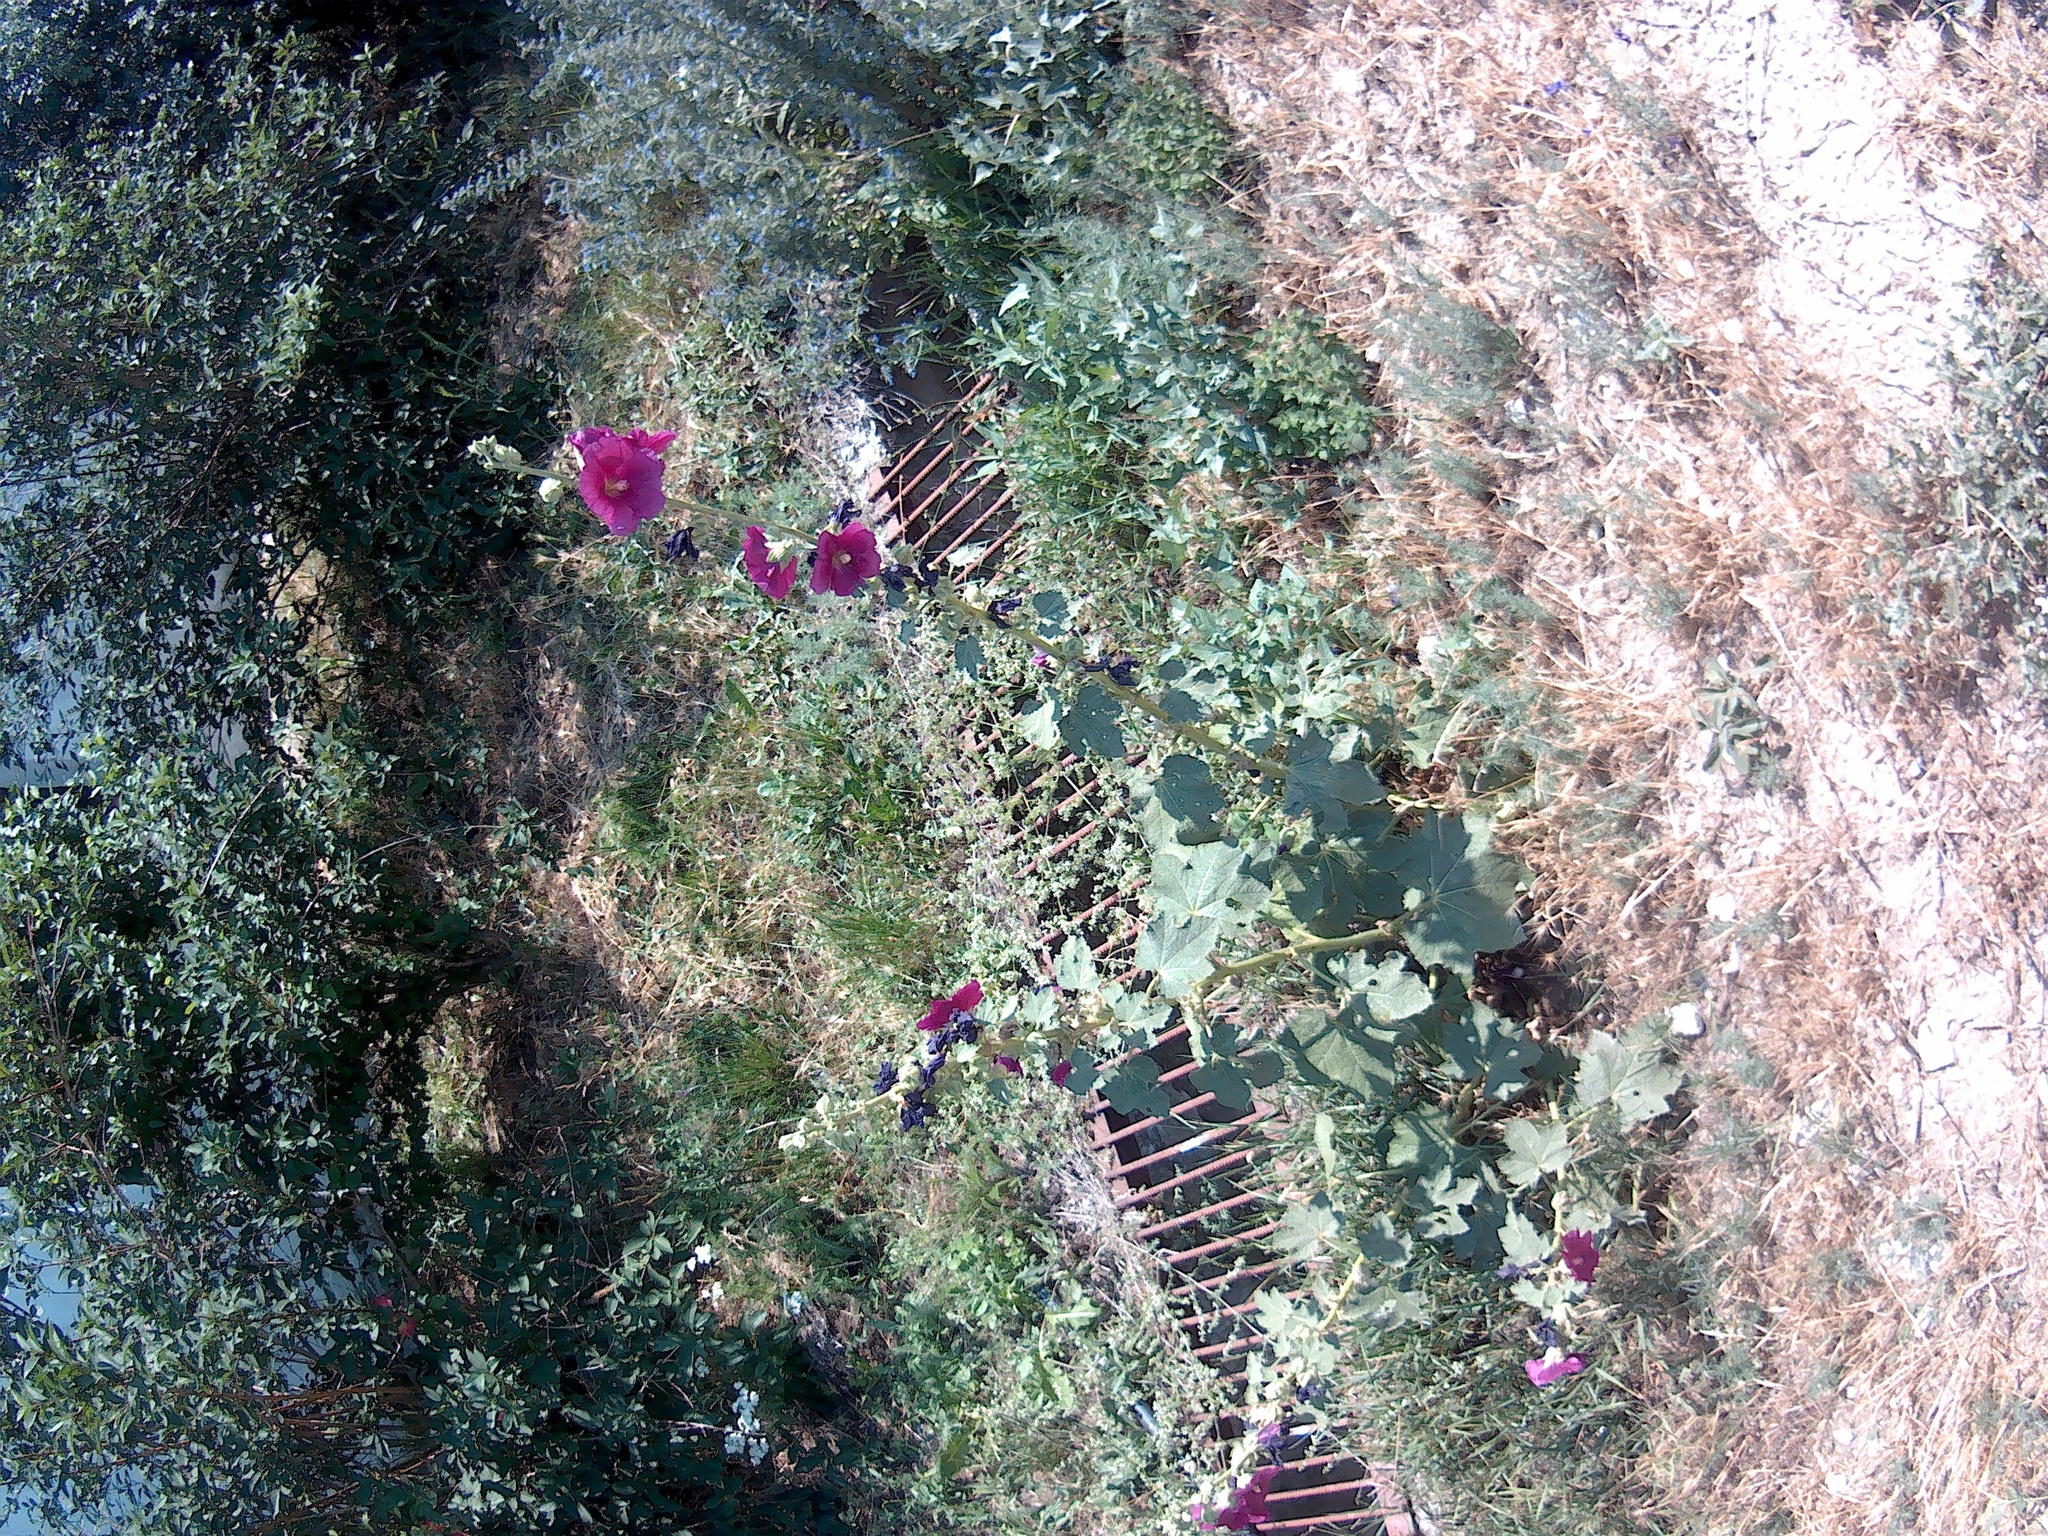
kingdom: Plantae
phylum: Tracheophyta
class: Magnoliopsida
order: Malvales
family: Malvaceae
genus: Alcea
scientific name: Alcea rosea
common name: Hollyhock
